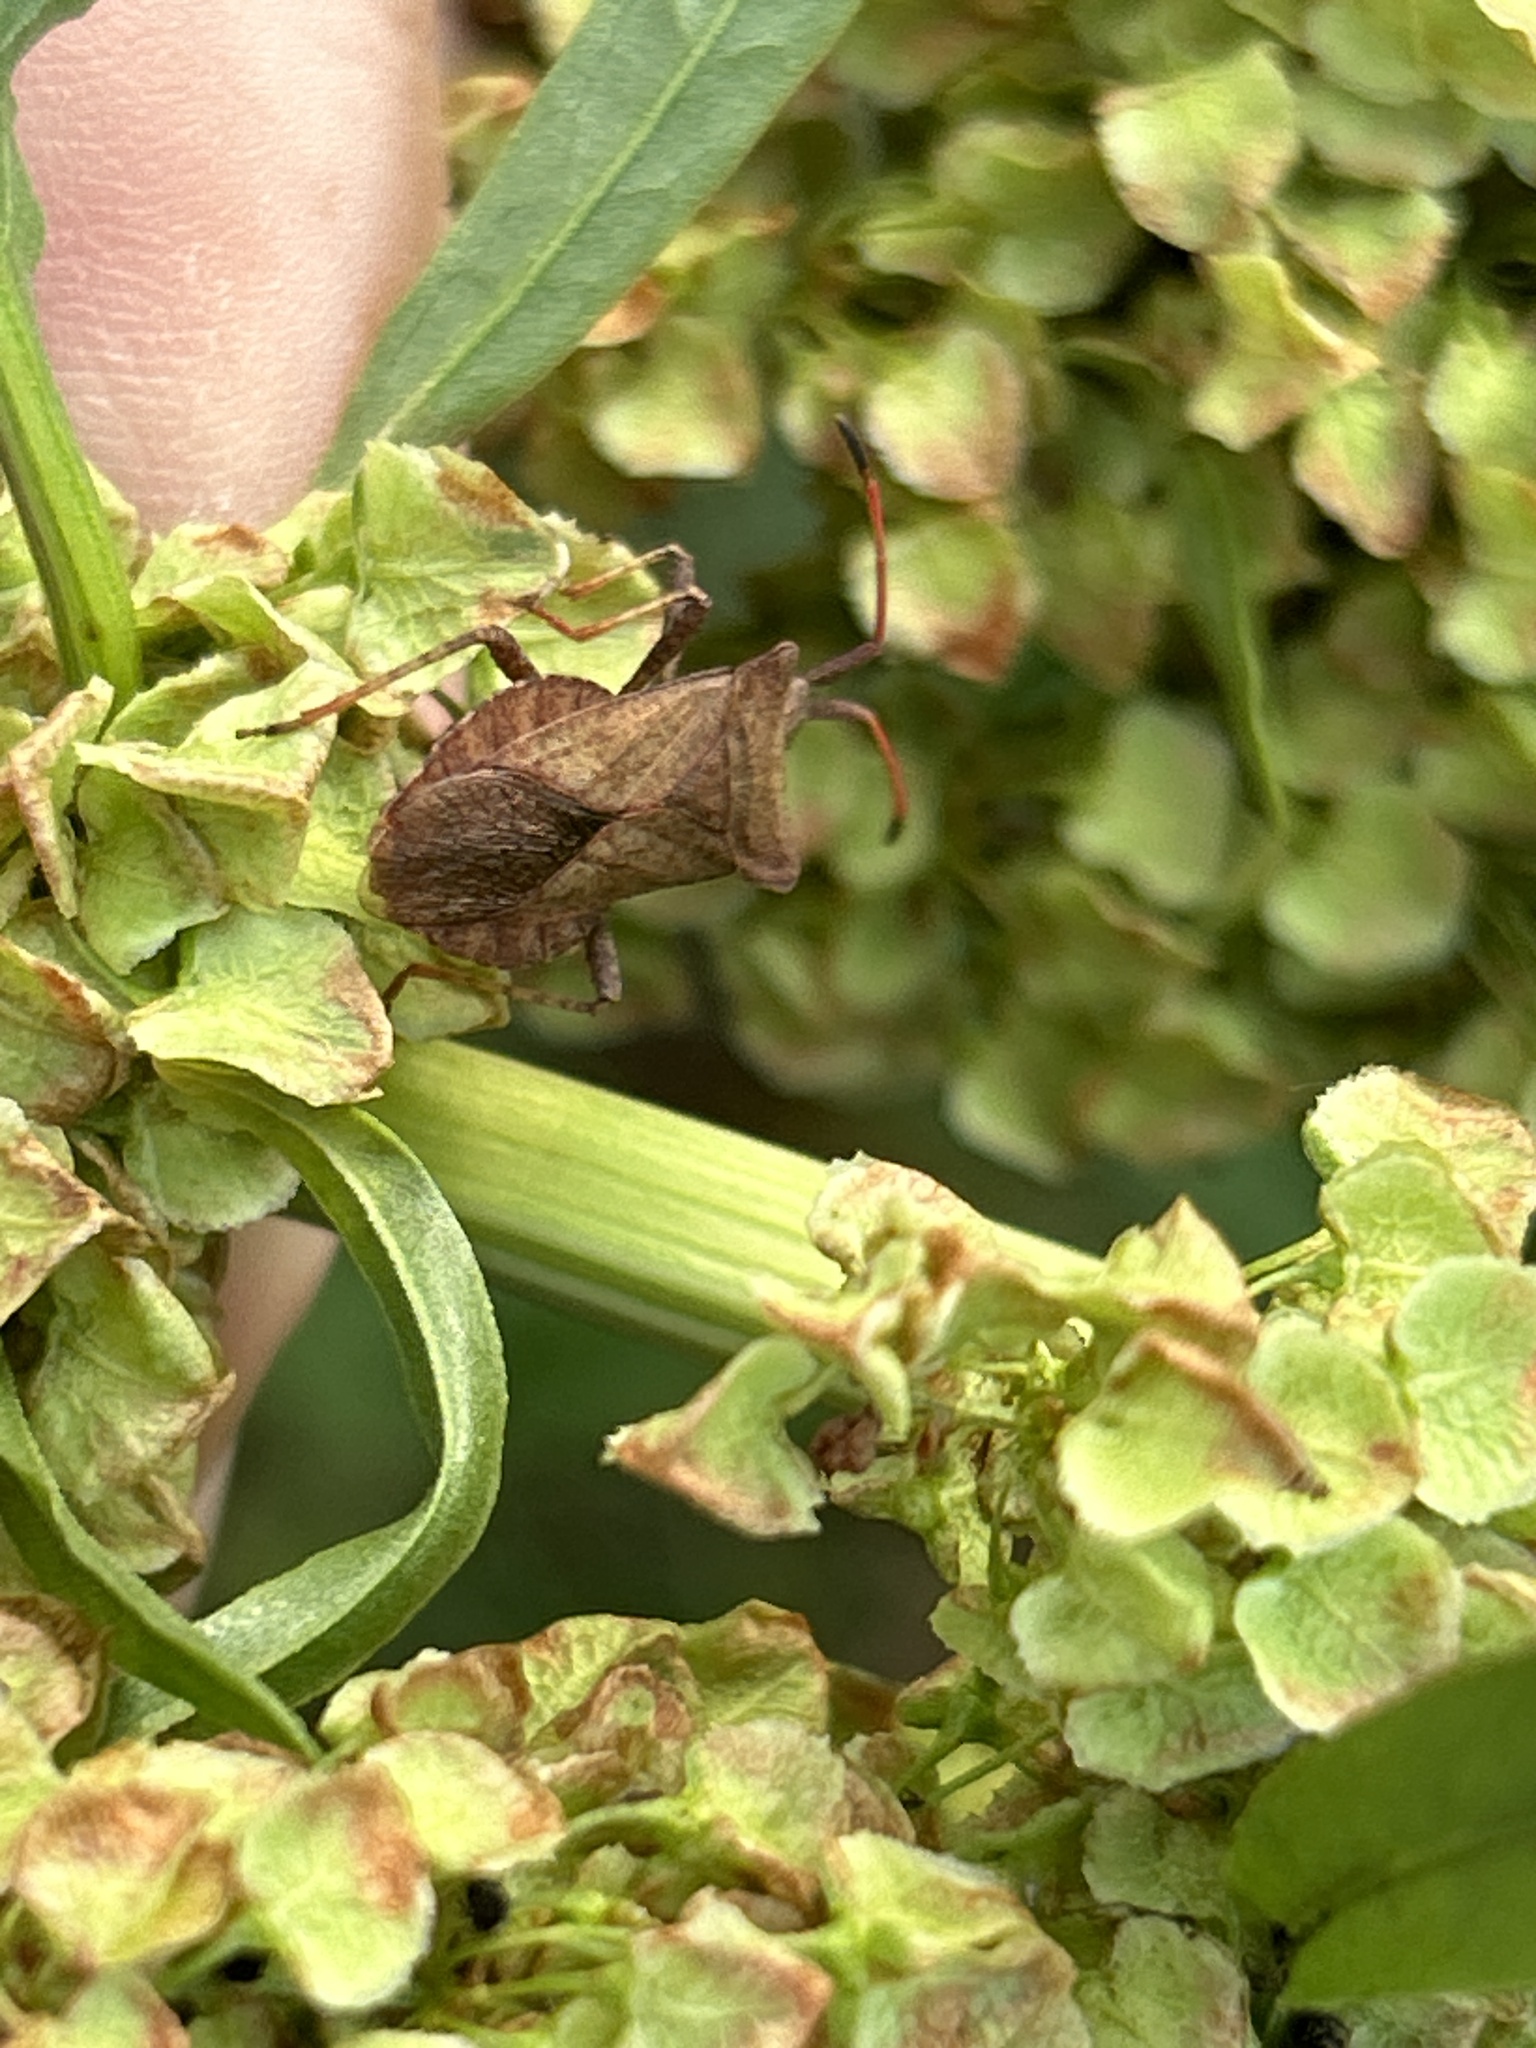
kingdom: Animalia
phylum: Arthropoda
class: Insecta
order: Hemiptera
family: Coreidae
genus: Coreus
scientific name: Coreus marginatus
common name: Dock bug
